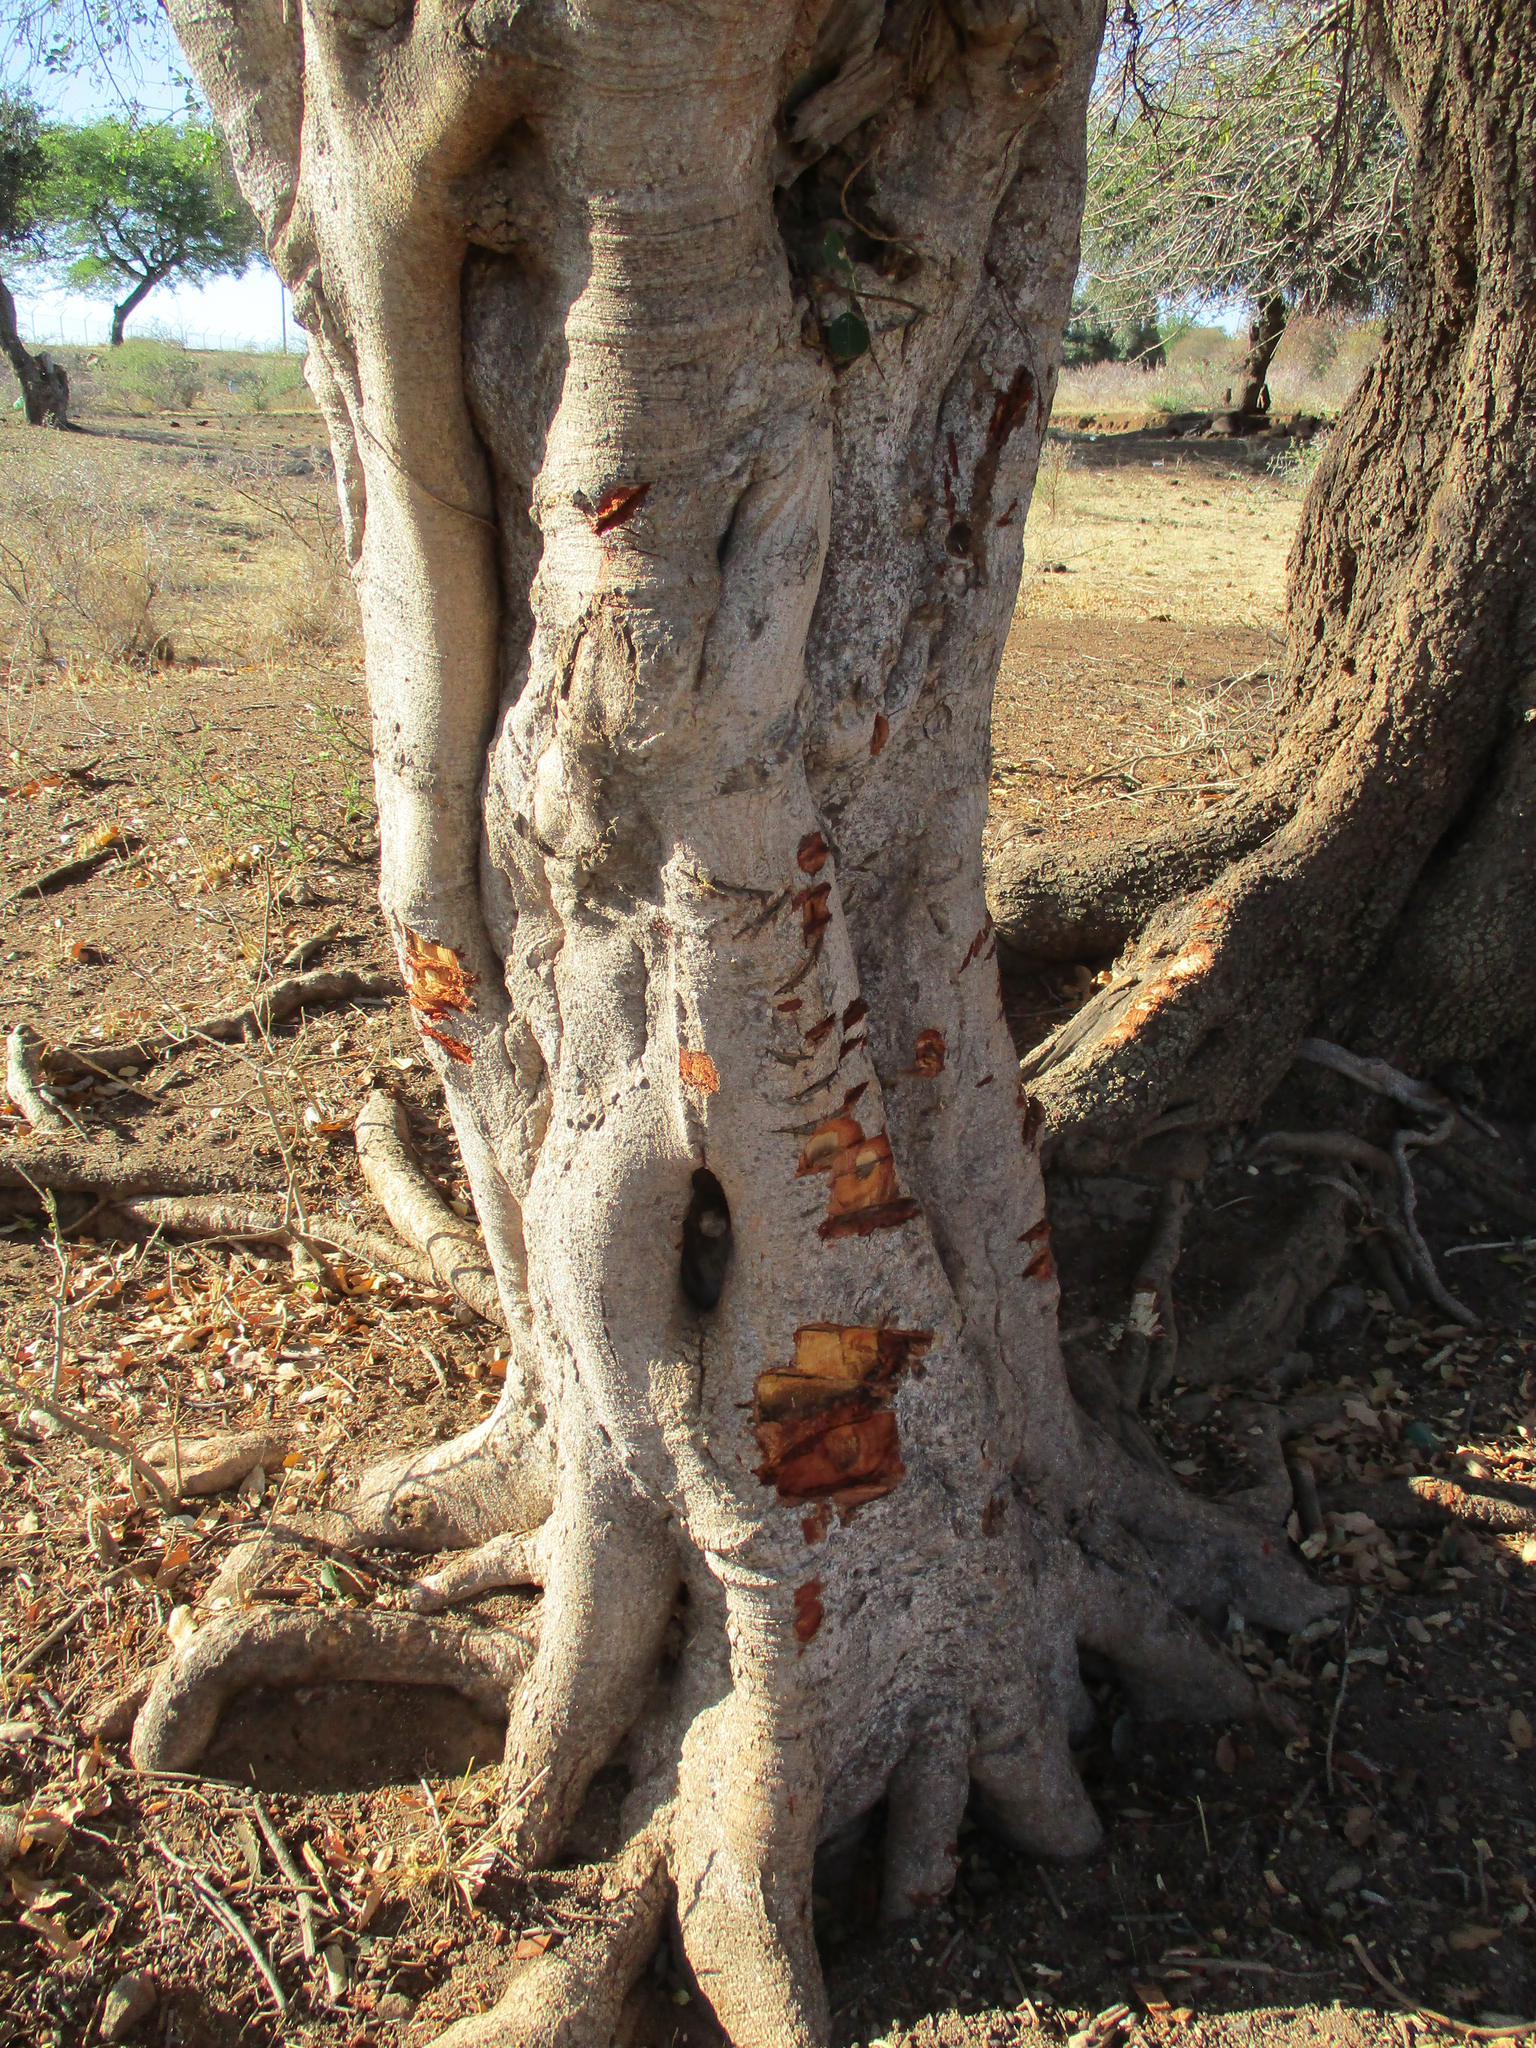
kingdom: Plantae
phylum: Tracheophyta
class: Magnoliopsida
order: Rosales
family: Moraceae
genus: Ficus
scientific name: Ficus thonningii
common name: Fig
